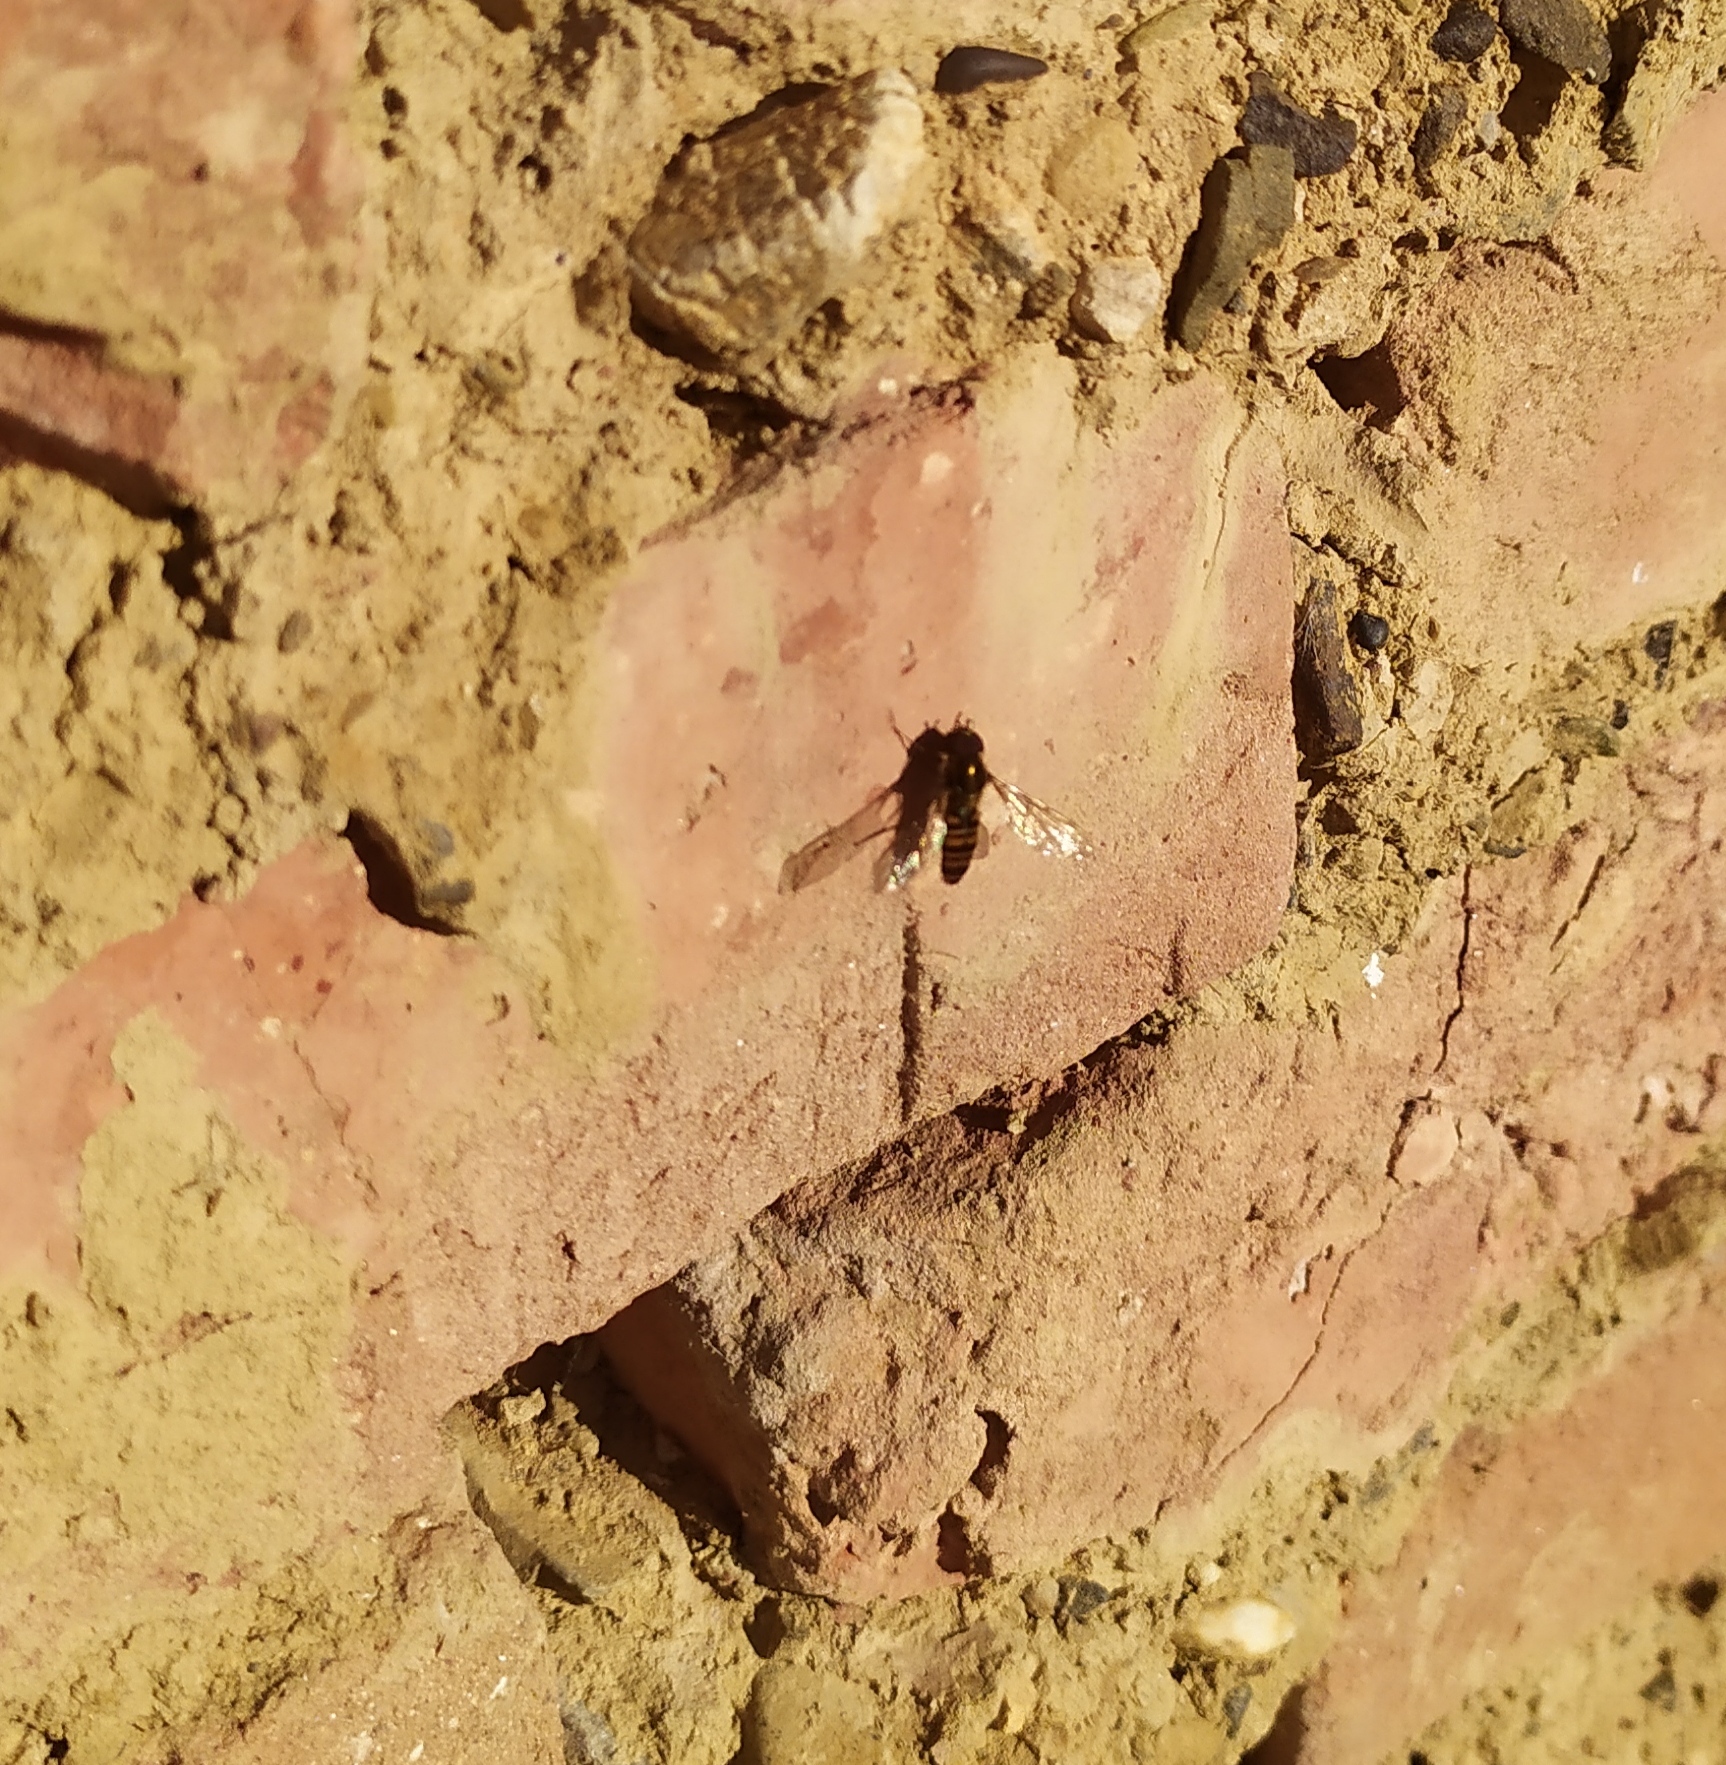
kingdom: Animalia
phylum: Arthropoda
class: Insecta
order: Diptera
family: Syrphidae
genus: Episyrphus
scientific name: Episyrphus balteatus
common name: Marmalade hoverfly
